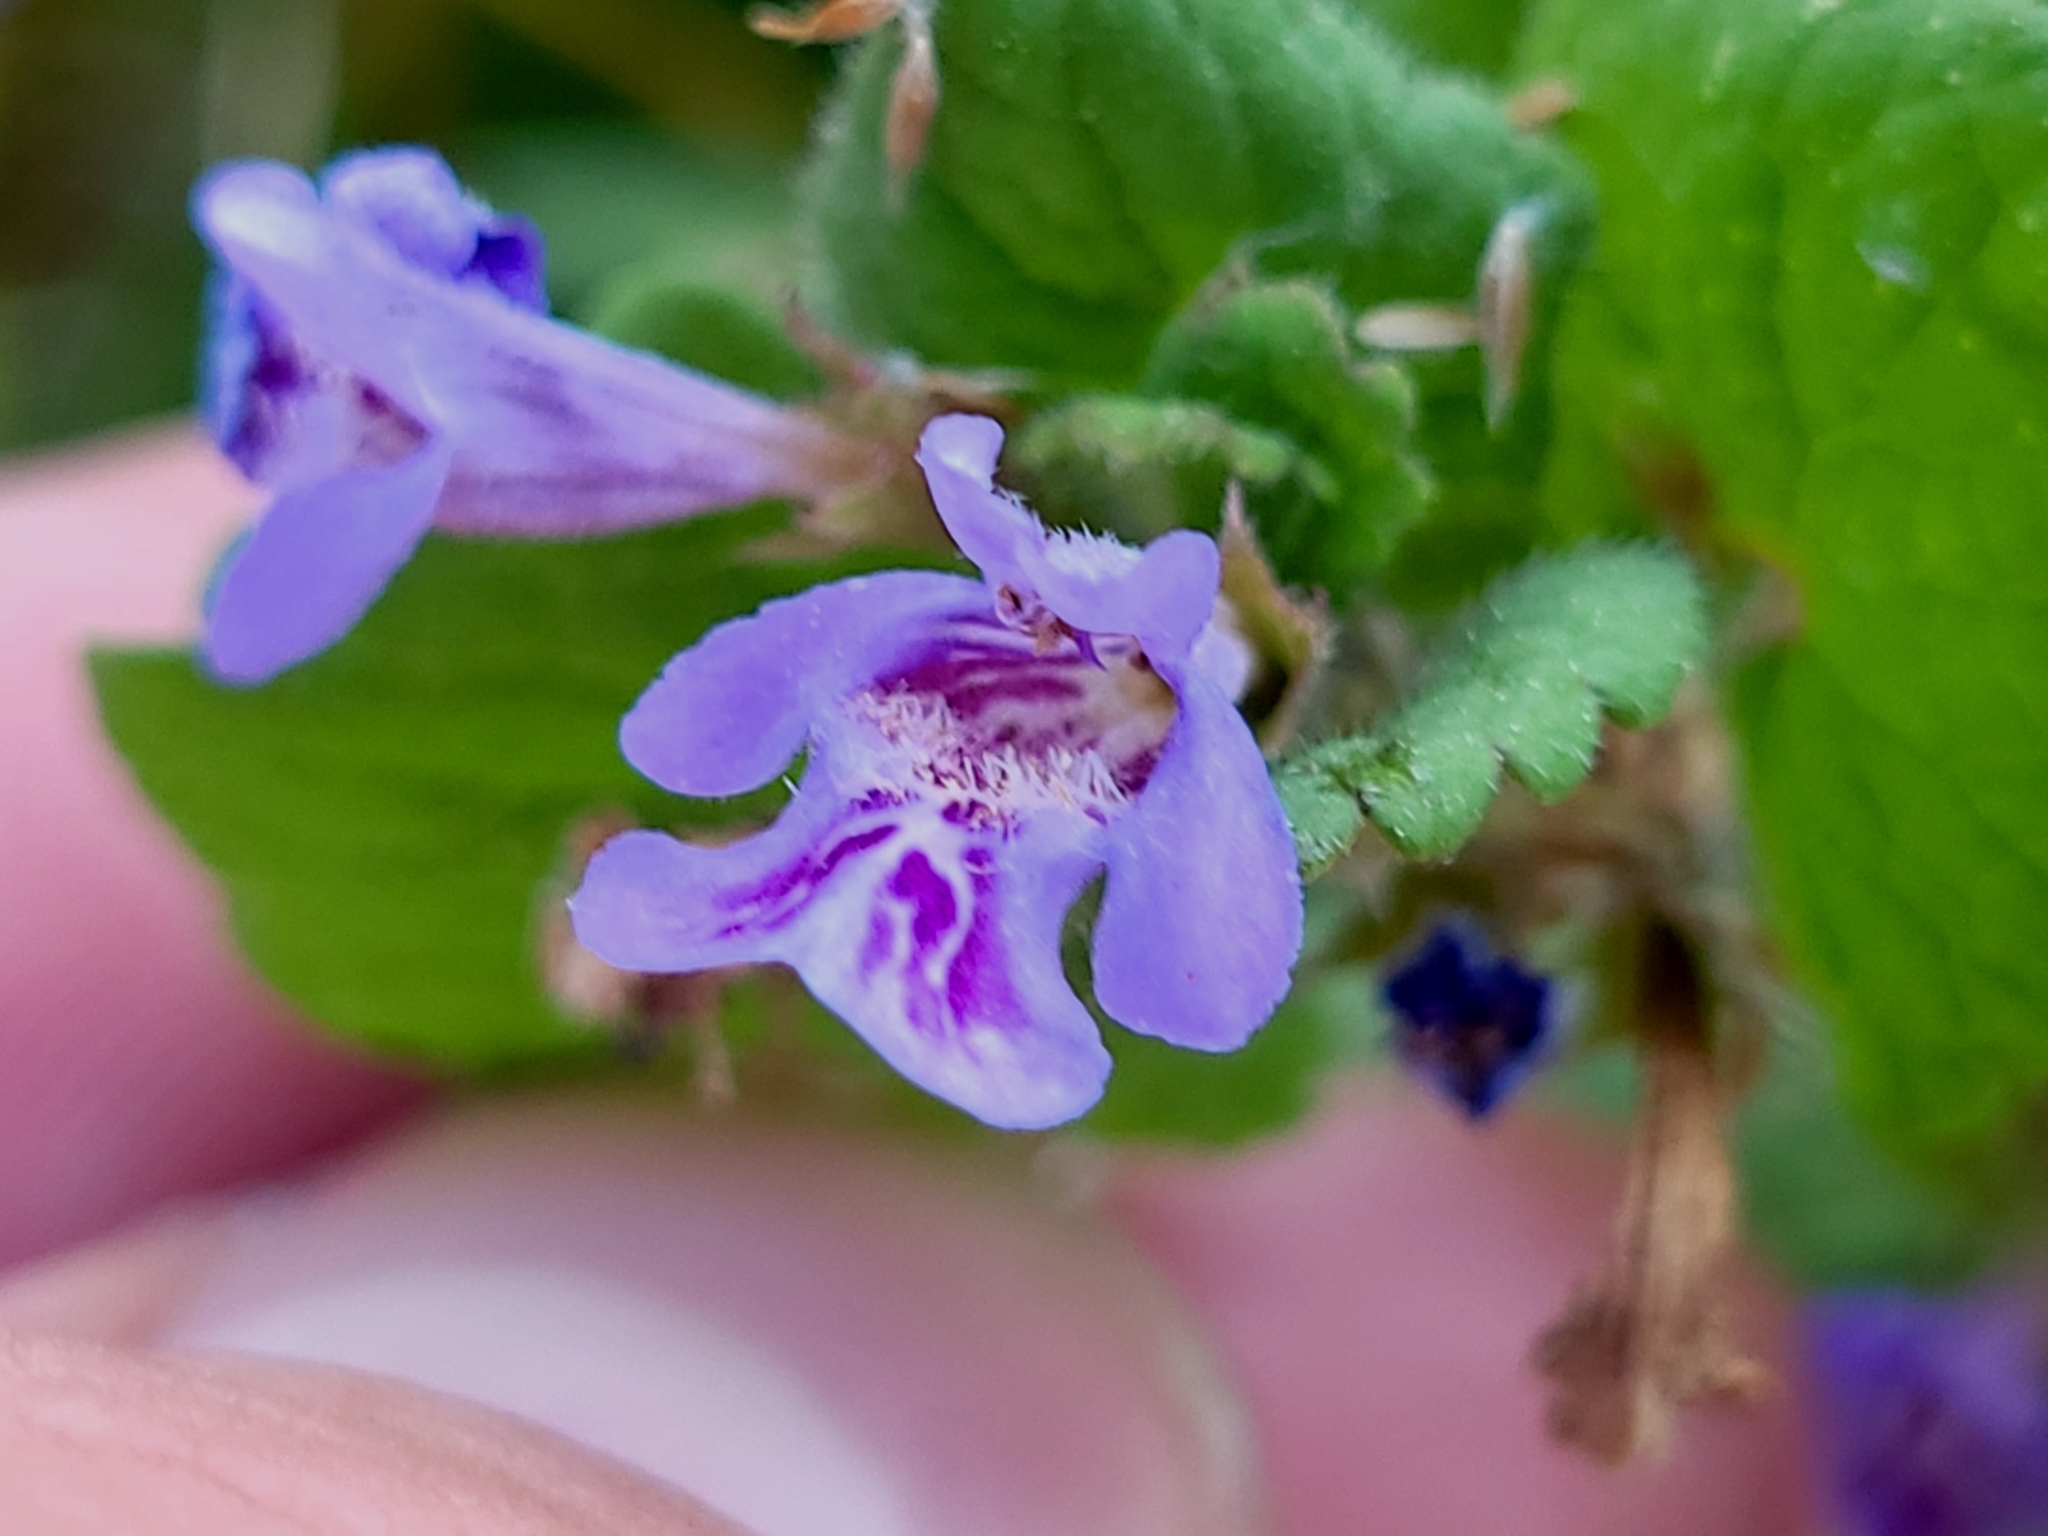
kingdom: Plantae
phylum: Tracheophyta
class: Magnoliopsida
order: Lamiales
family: Lamiaceae
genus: Glechoma
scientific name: Glechoma hederacea
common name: Ground ivy
